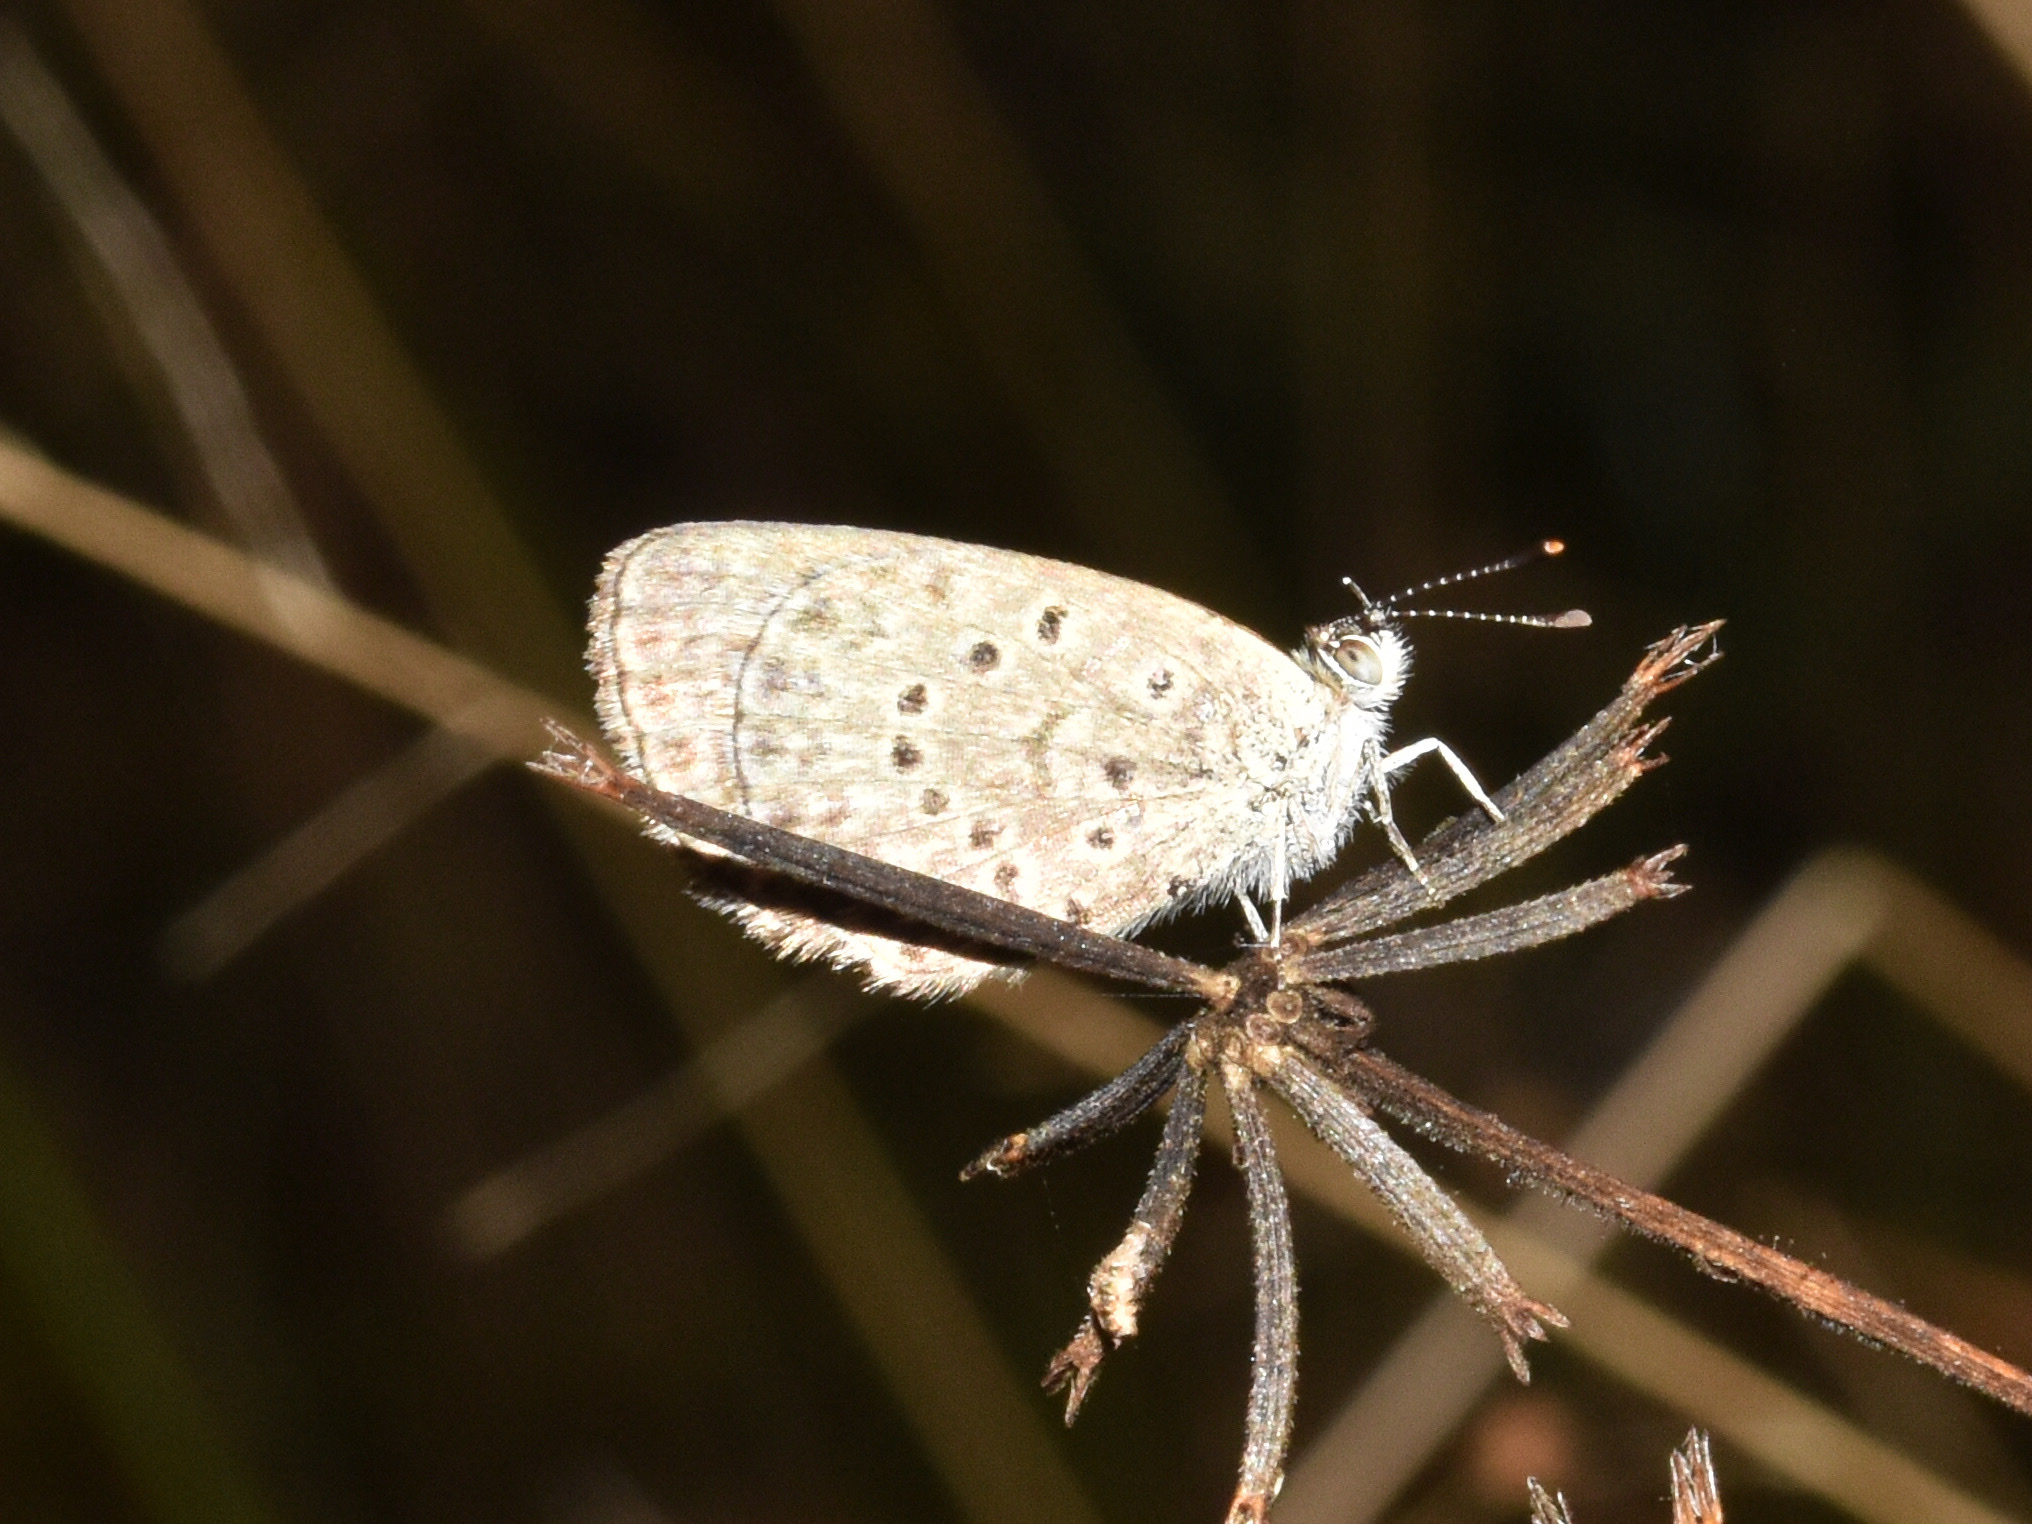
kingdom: Animalia
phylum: Arthropoda
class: Insecta
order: Lepidoptera
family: Lycaenidae
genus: Zizeeria
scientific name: Zizeeria knysna
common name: African grass blue
